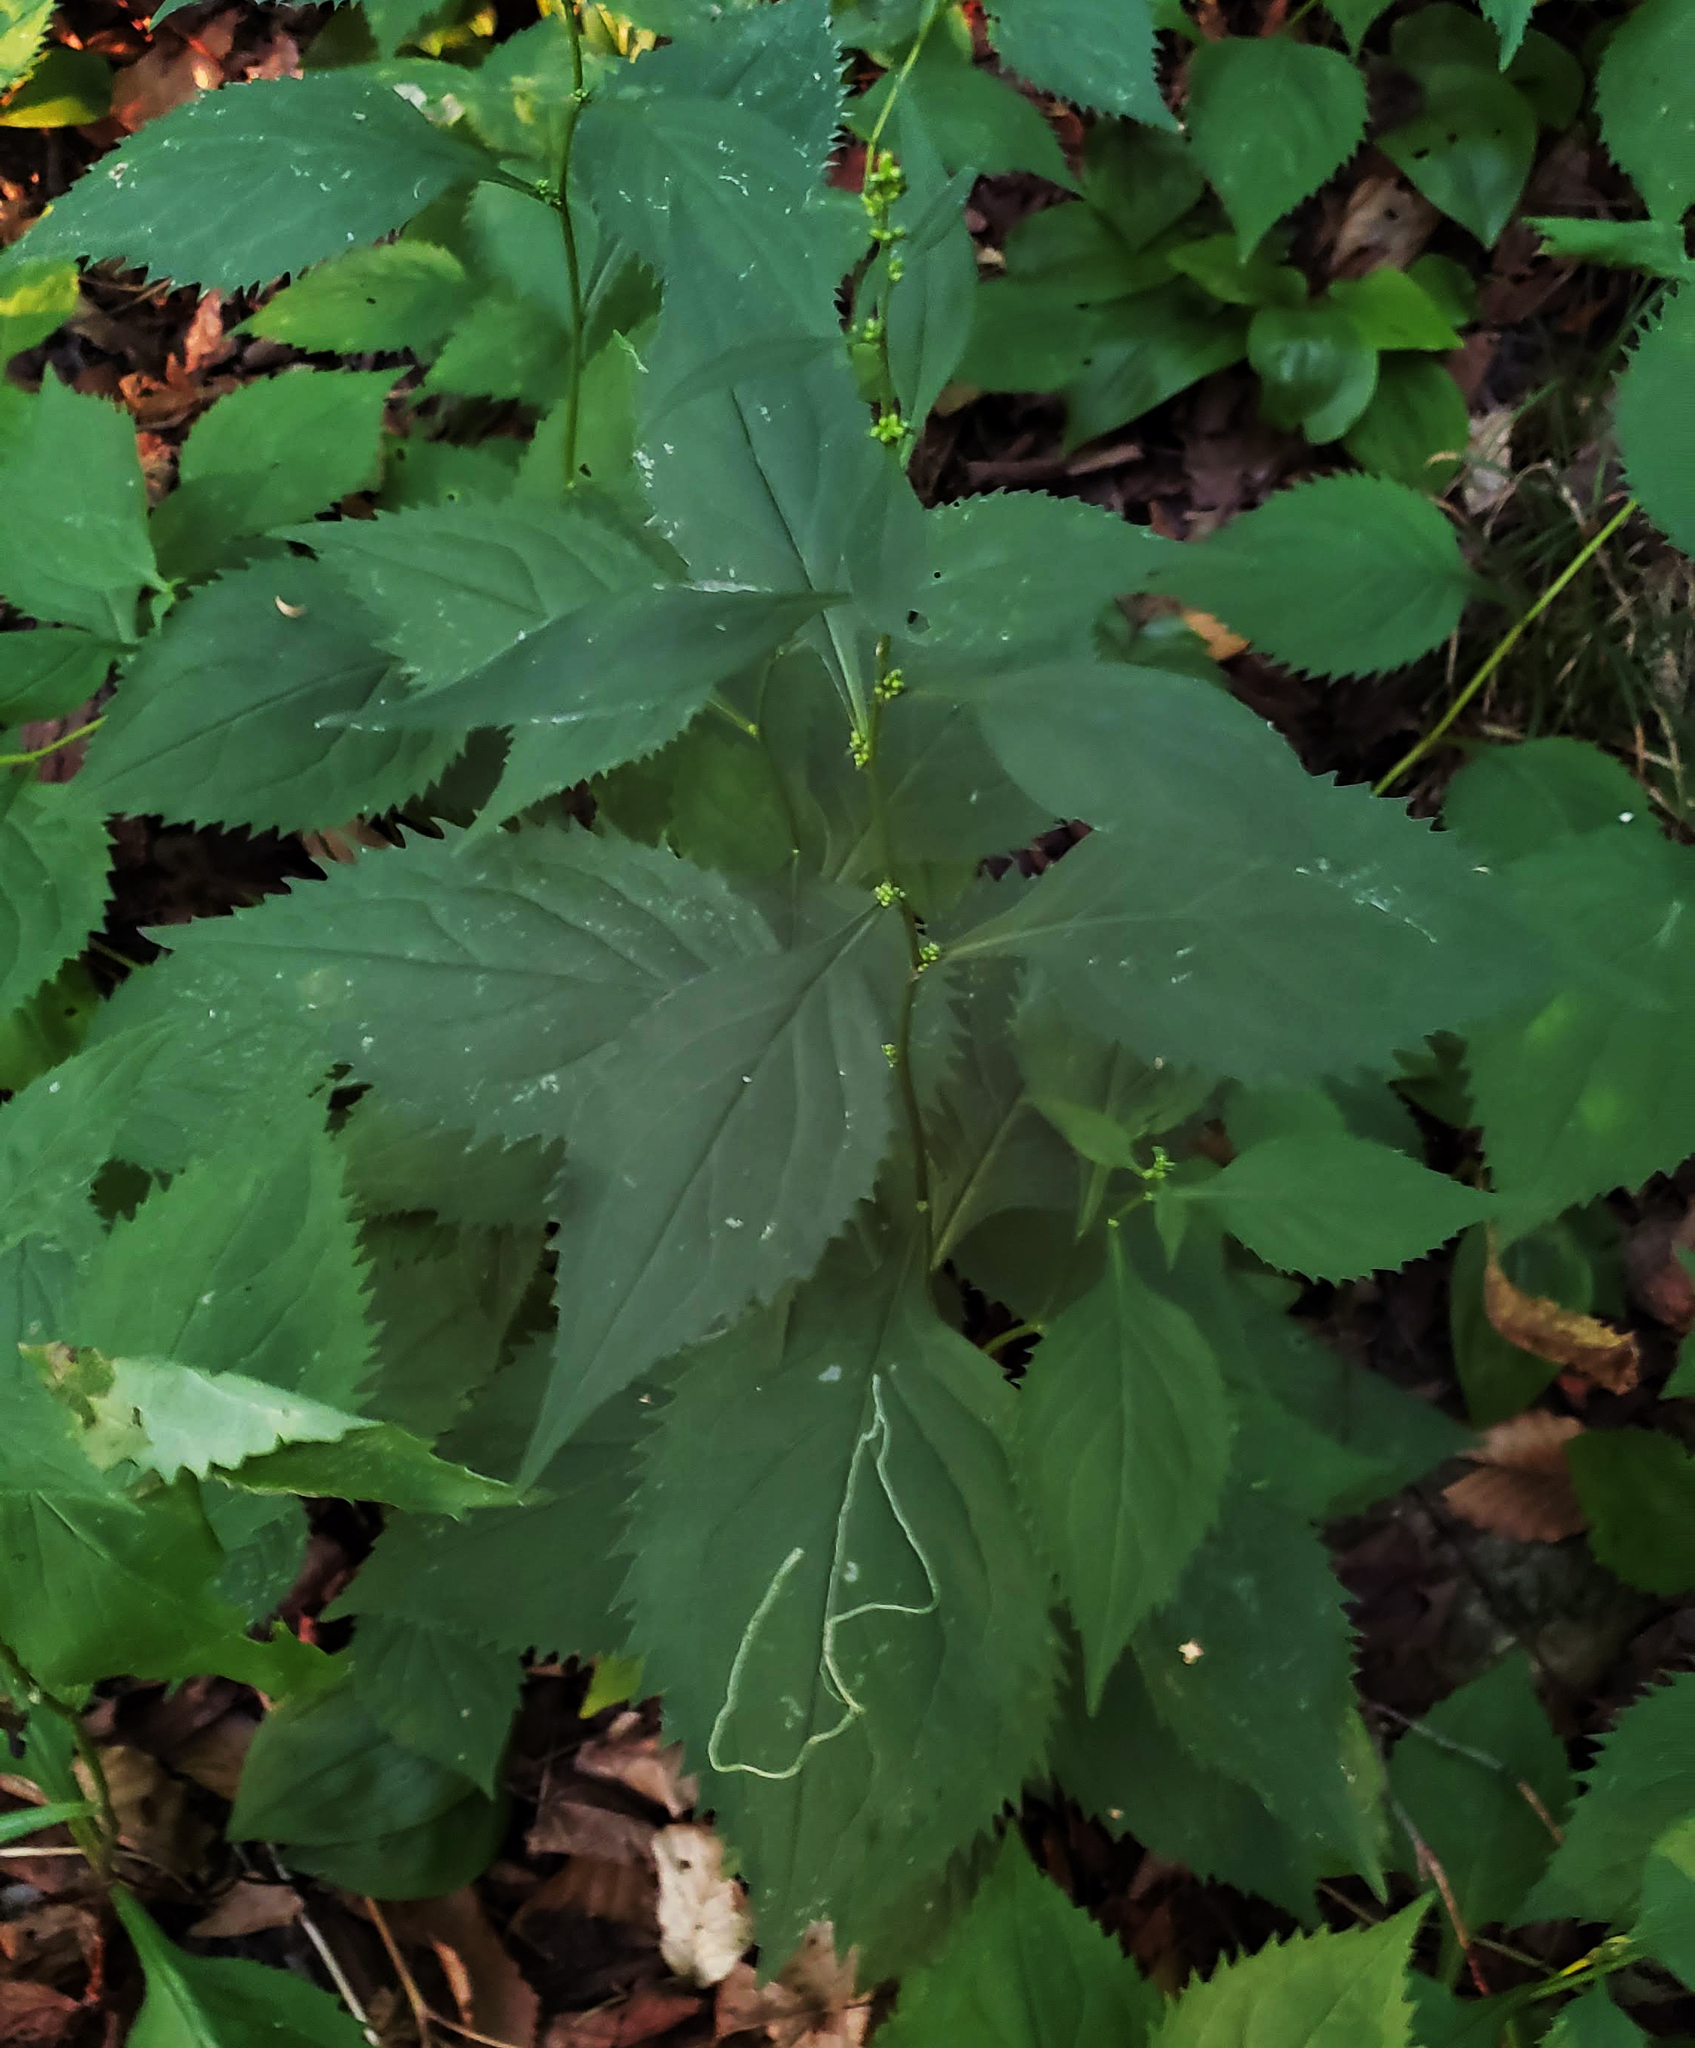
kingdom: Plantae
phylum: Tracheophyta
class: Magnoliopsida
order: Asterales
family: Asteraceae
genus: Solidago
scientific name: Solidago flexicaulis
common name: Zig-zag goldenrod
